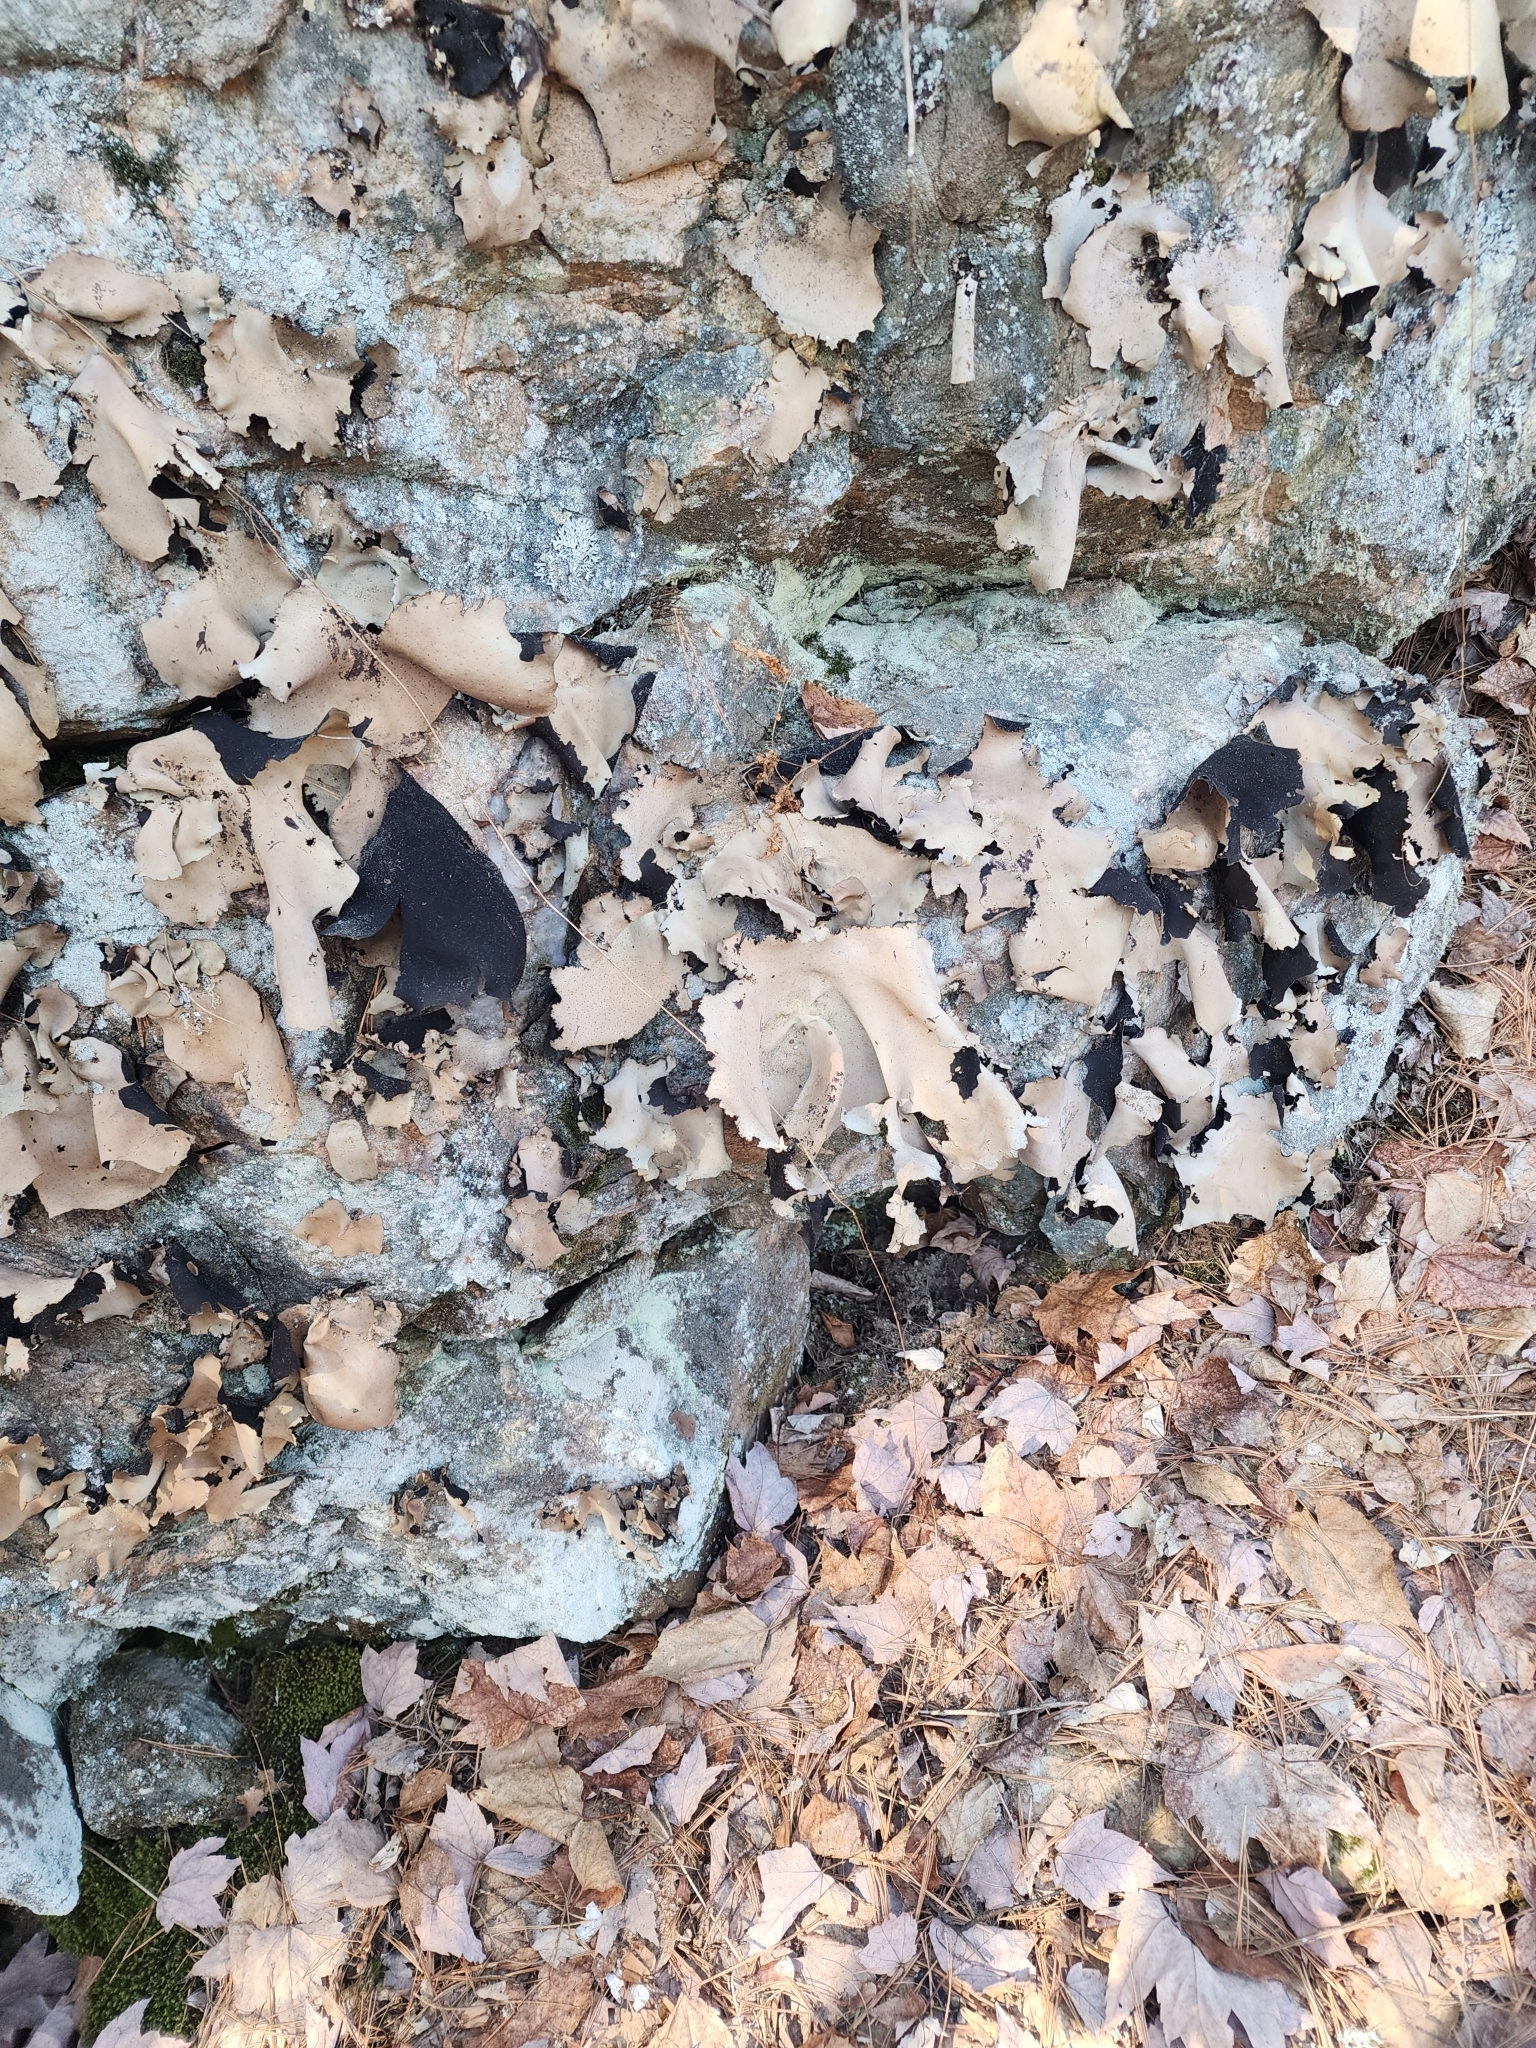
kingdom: Fungi
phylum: Ascomycota
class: Lecanoromycetes
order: Umbilicariales
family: Umbilicariaceae
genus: Umbilicaria
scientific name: Umbilicaria mammulata
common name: Smooth rock tripe
